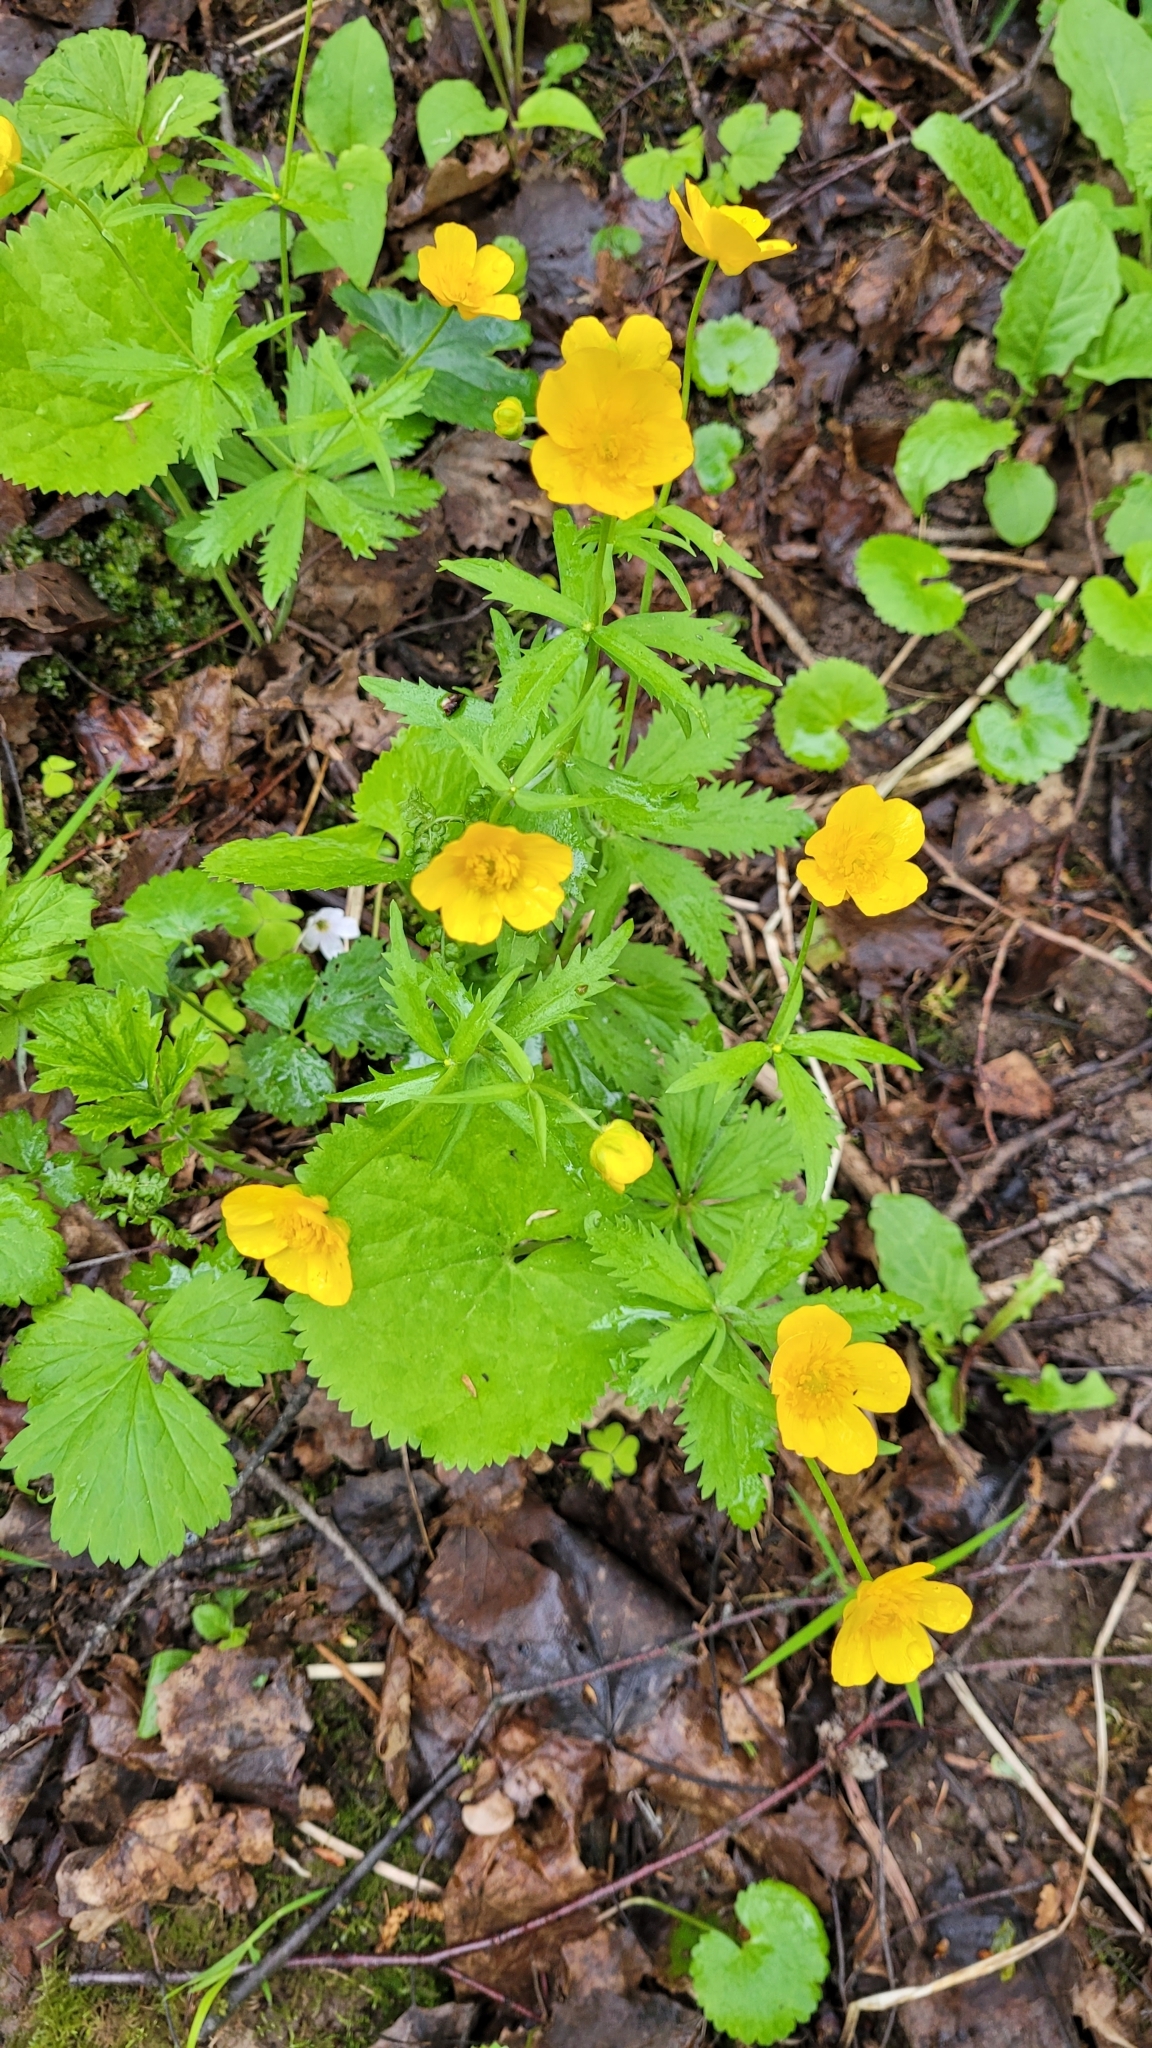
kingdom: Plantae
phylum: Tracheophyta
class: Magnoliopsida
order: Ranunculales
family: Ranunculaceae
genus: Ranunculus
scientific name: Ranunculus cassubicus
